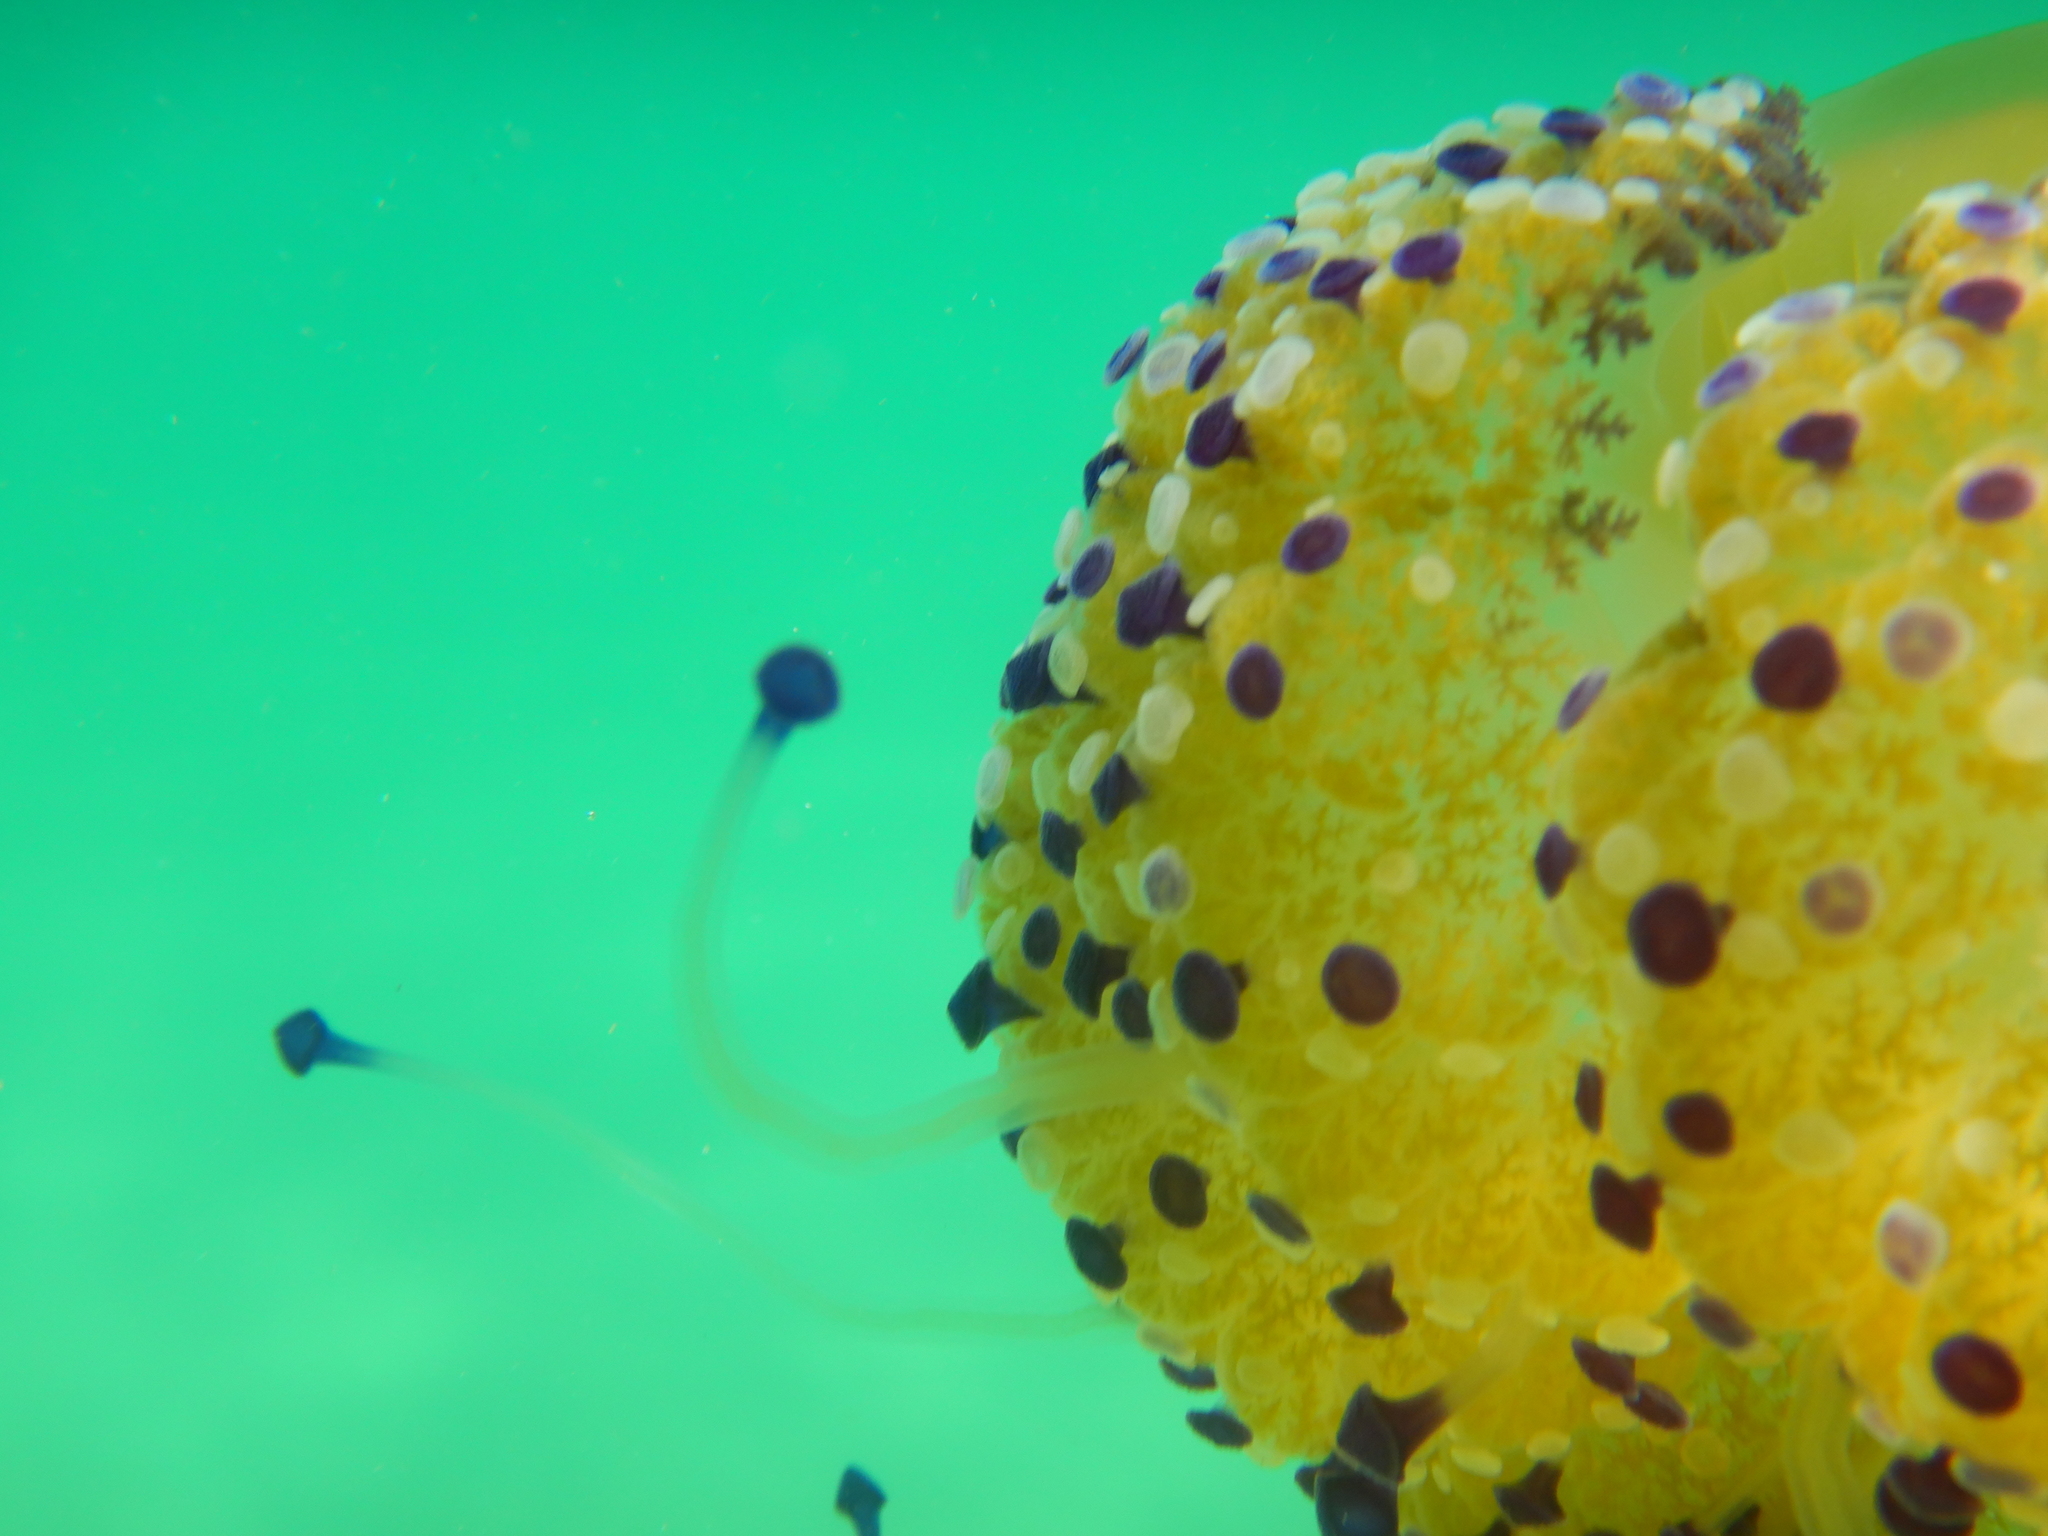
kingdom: Animalia
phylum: Cnidaria
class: Scyphozoa
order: Rhizostomeae
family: Cepheidae
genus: Cotylorhiza
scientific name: Cotylorhiza tuberculata
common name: Mediterranean jelly
